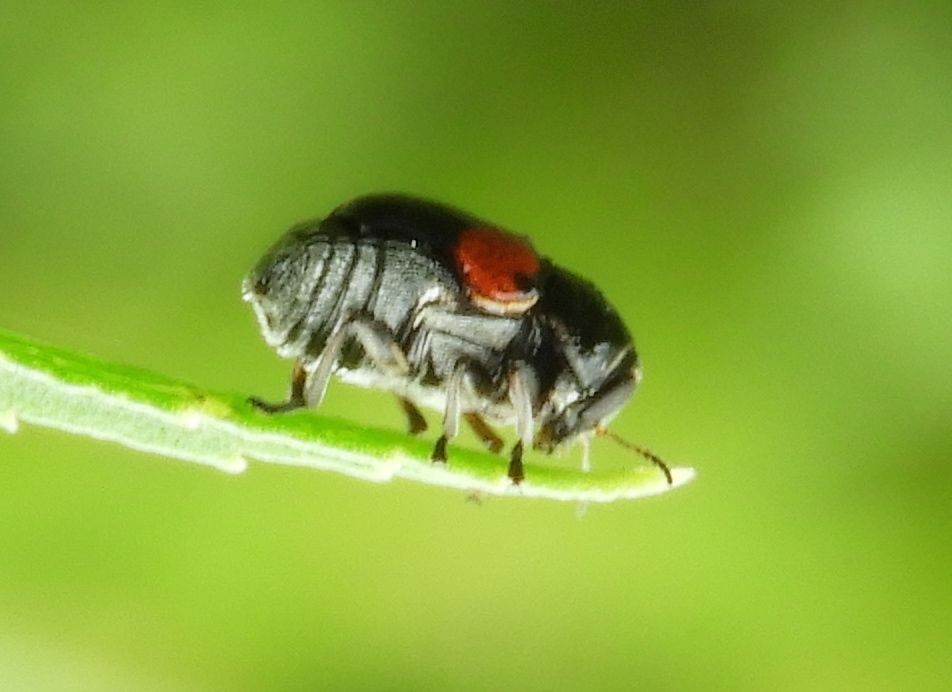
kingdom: Animalia
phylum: Arthropoda
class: Insecta
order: Coleoptera
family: Chrysomelidae
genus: Cryptocephalus
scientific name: Cryptocephalus
